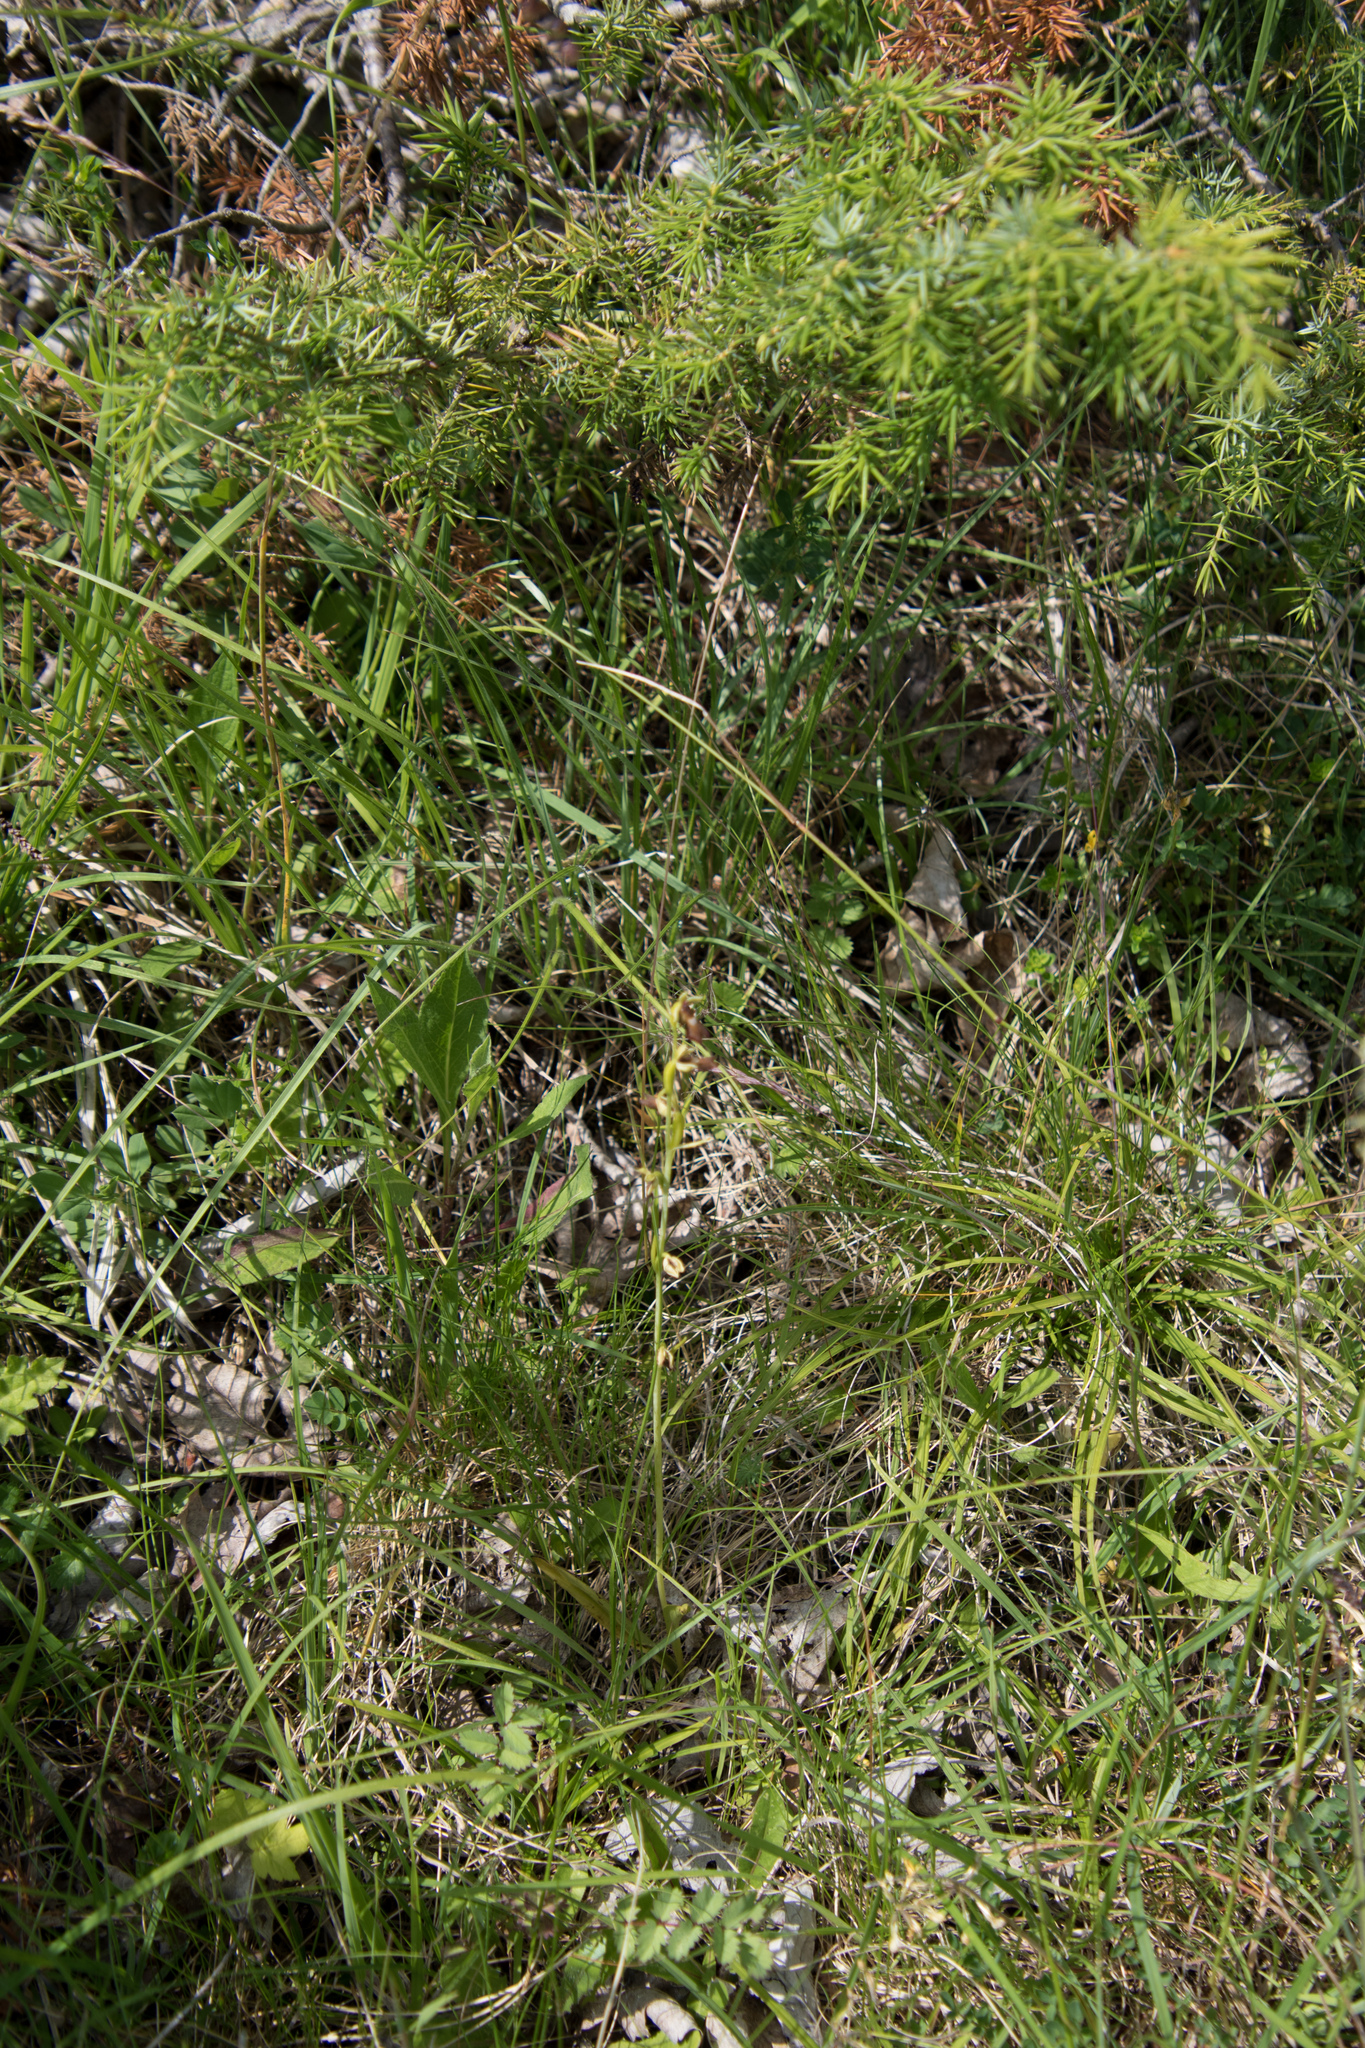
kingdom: Plantae
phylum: Tracheophyta
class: Liliopsida
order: Asparagales
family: Orchidaceae
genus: Ophrys
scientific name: Ophrys insectifera
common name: Fly orchid
